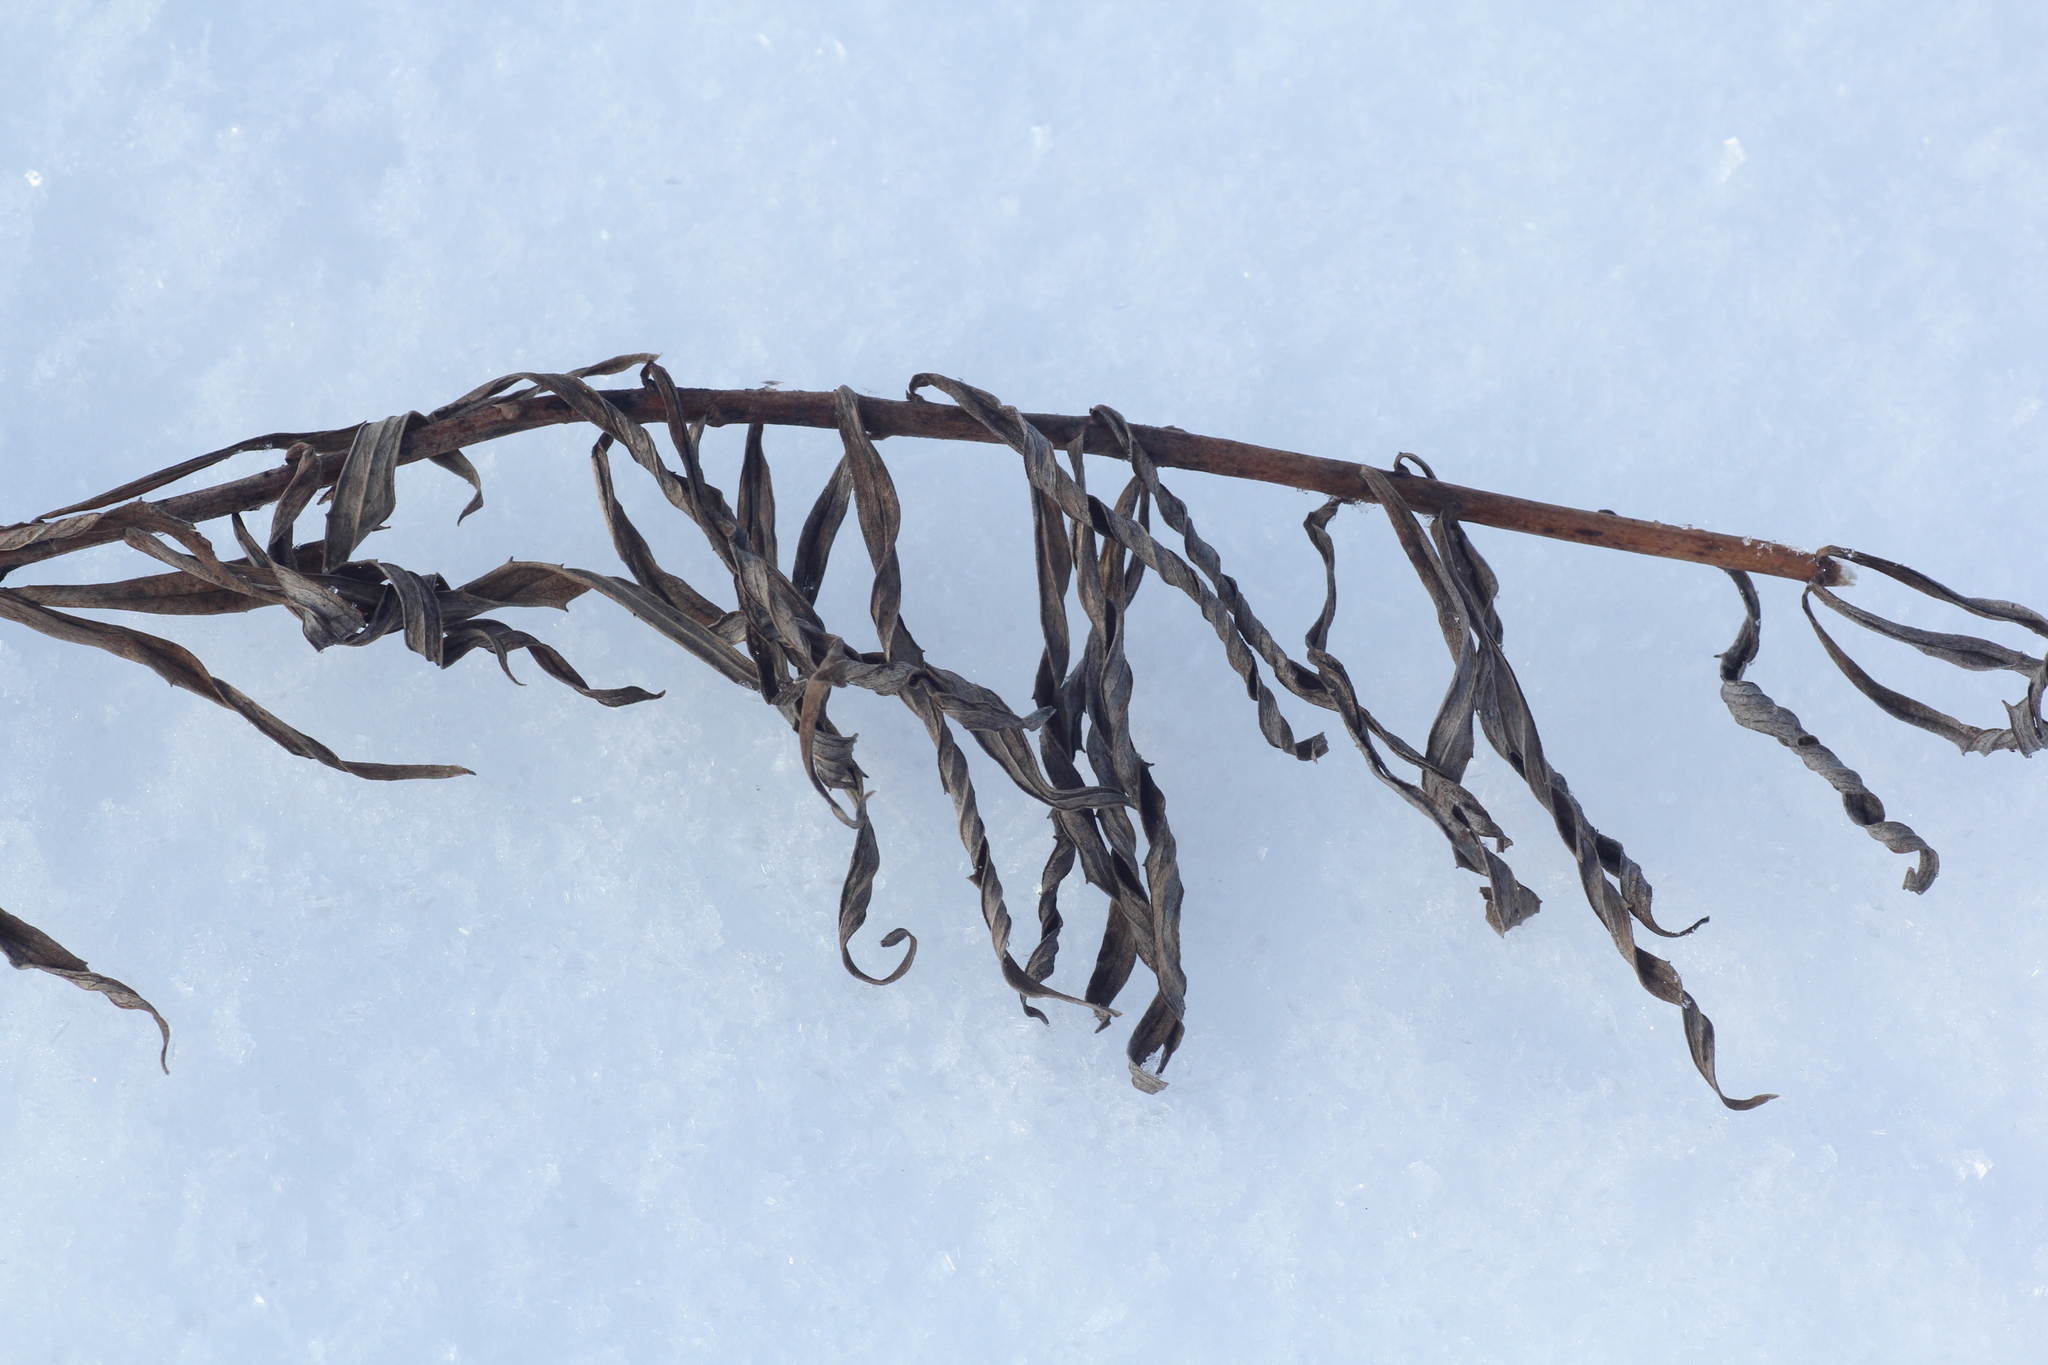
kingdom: Plantae
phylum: Tracheophyta
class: Magnoliopsida
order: Asterales
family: Asteraceae
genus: Hieracium
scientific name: Hieracium umbellatum
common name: Northern hawkweed
